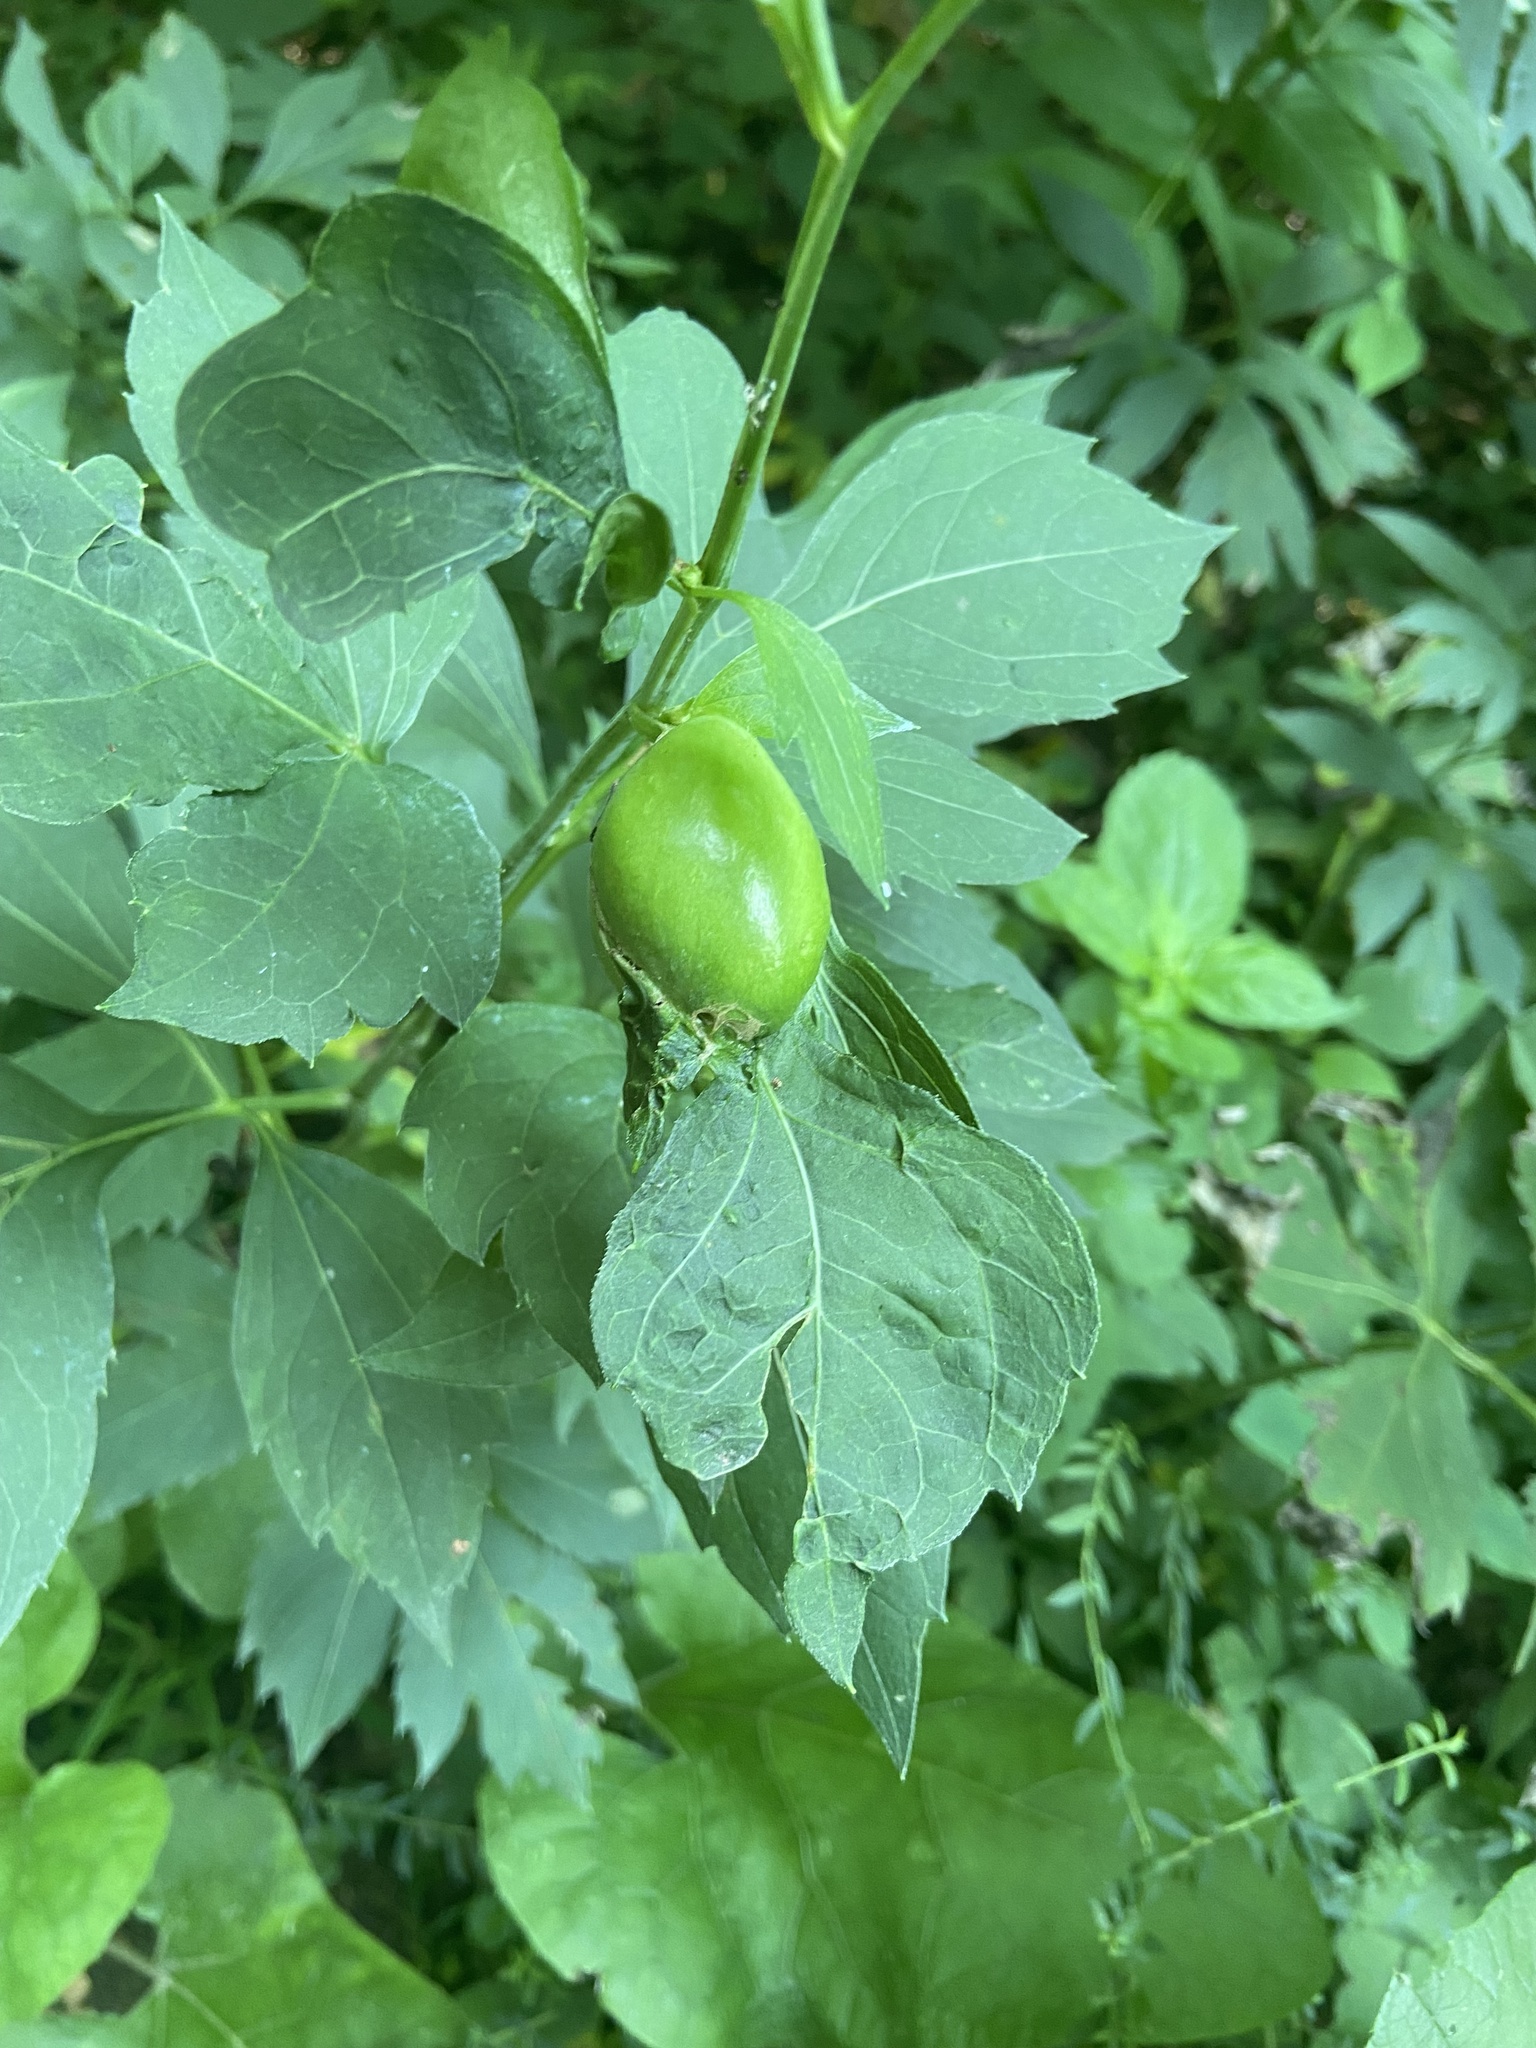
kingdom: Animalia
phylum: Arthropoda
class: Insecta
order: Diptera
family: Cecidomyiidae
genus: Asphondylia
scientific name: Asphondylia rudbeckiaeconspicua
